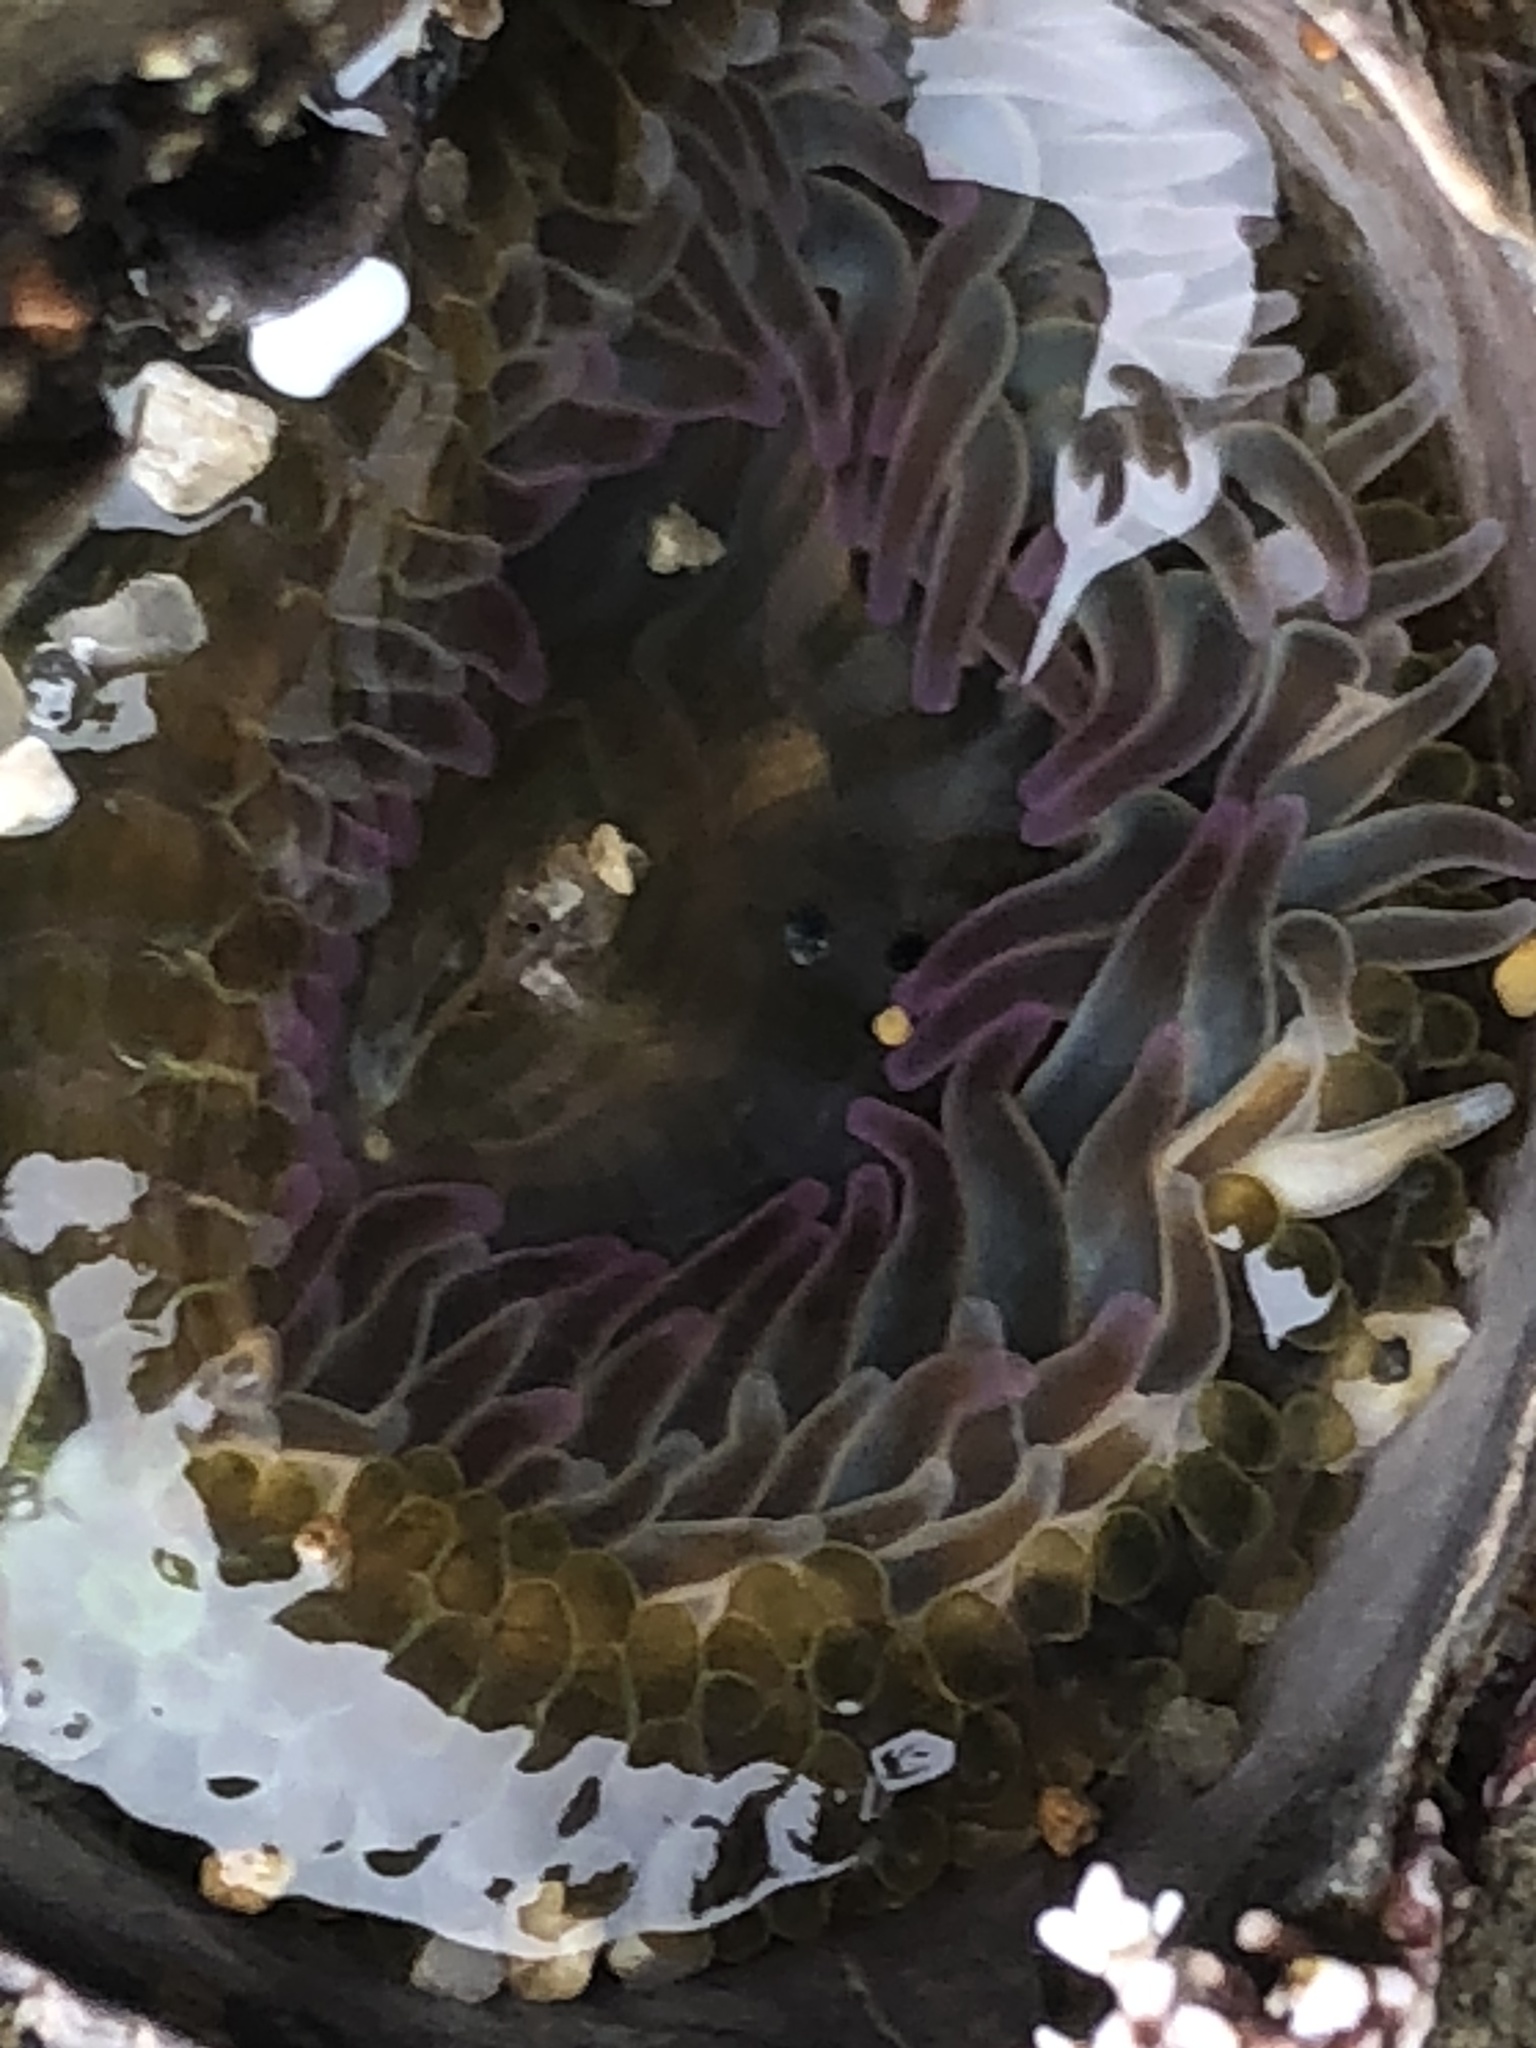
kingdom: Animalia
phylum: Cnidaria
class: Anthozoa
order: Actiniaria
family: Actiniidae
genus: Anthopleura
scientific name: Anthopleura elegantissima
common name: Clonal anemone
